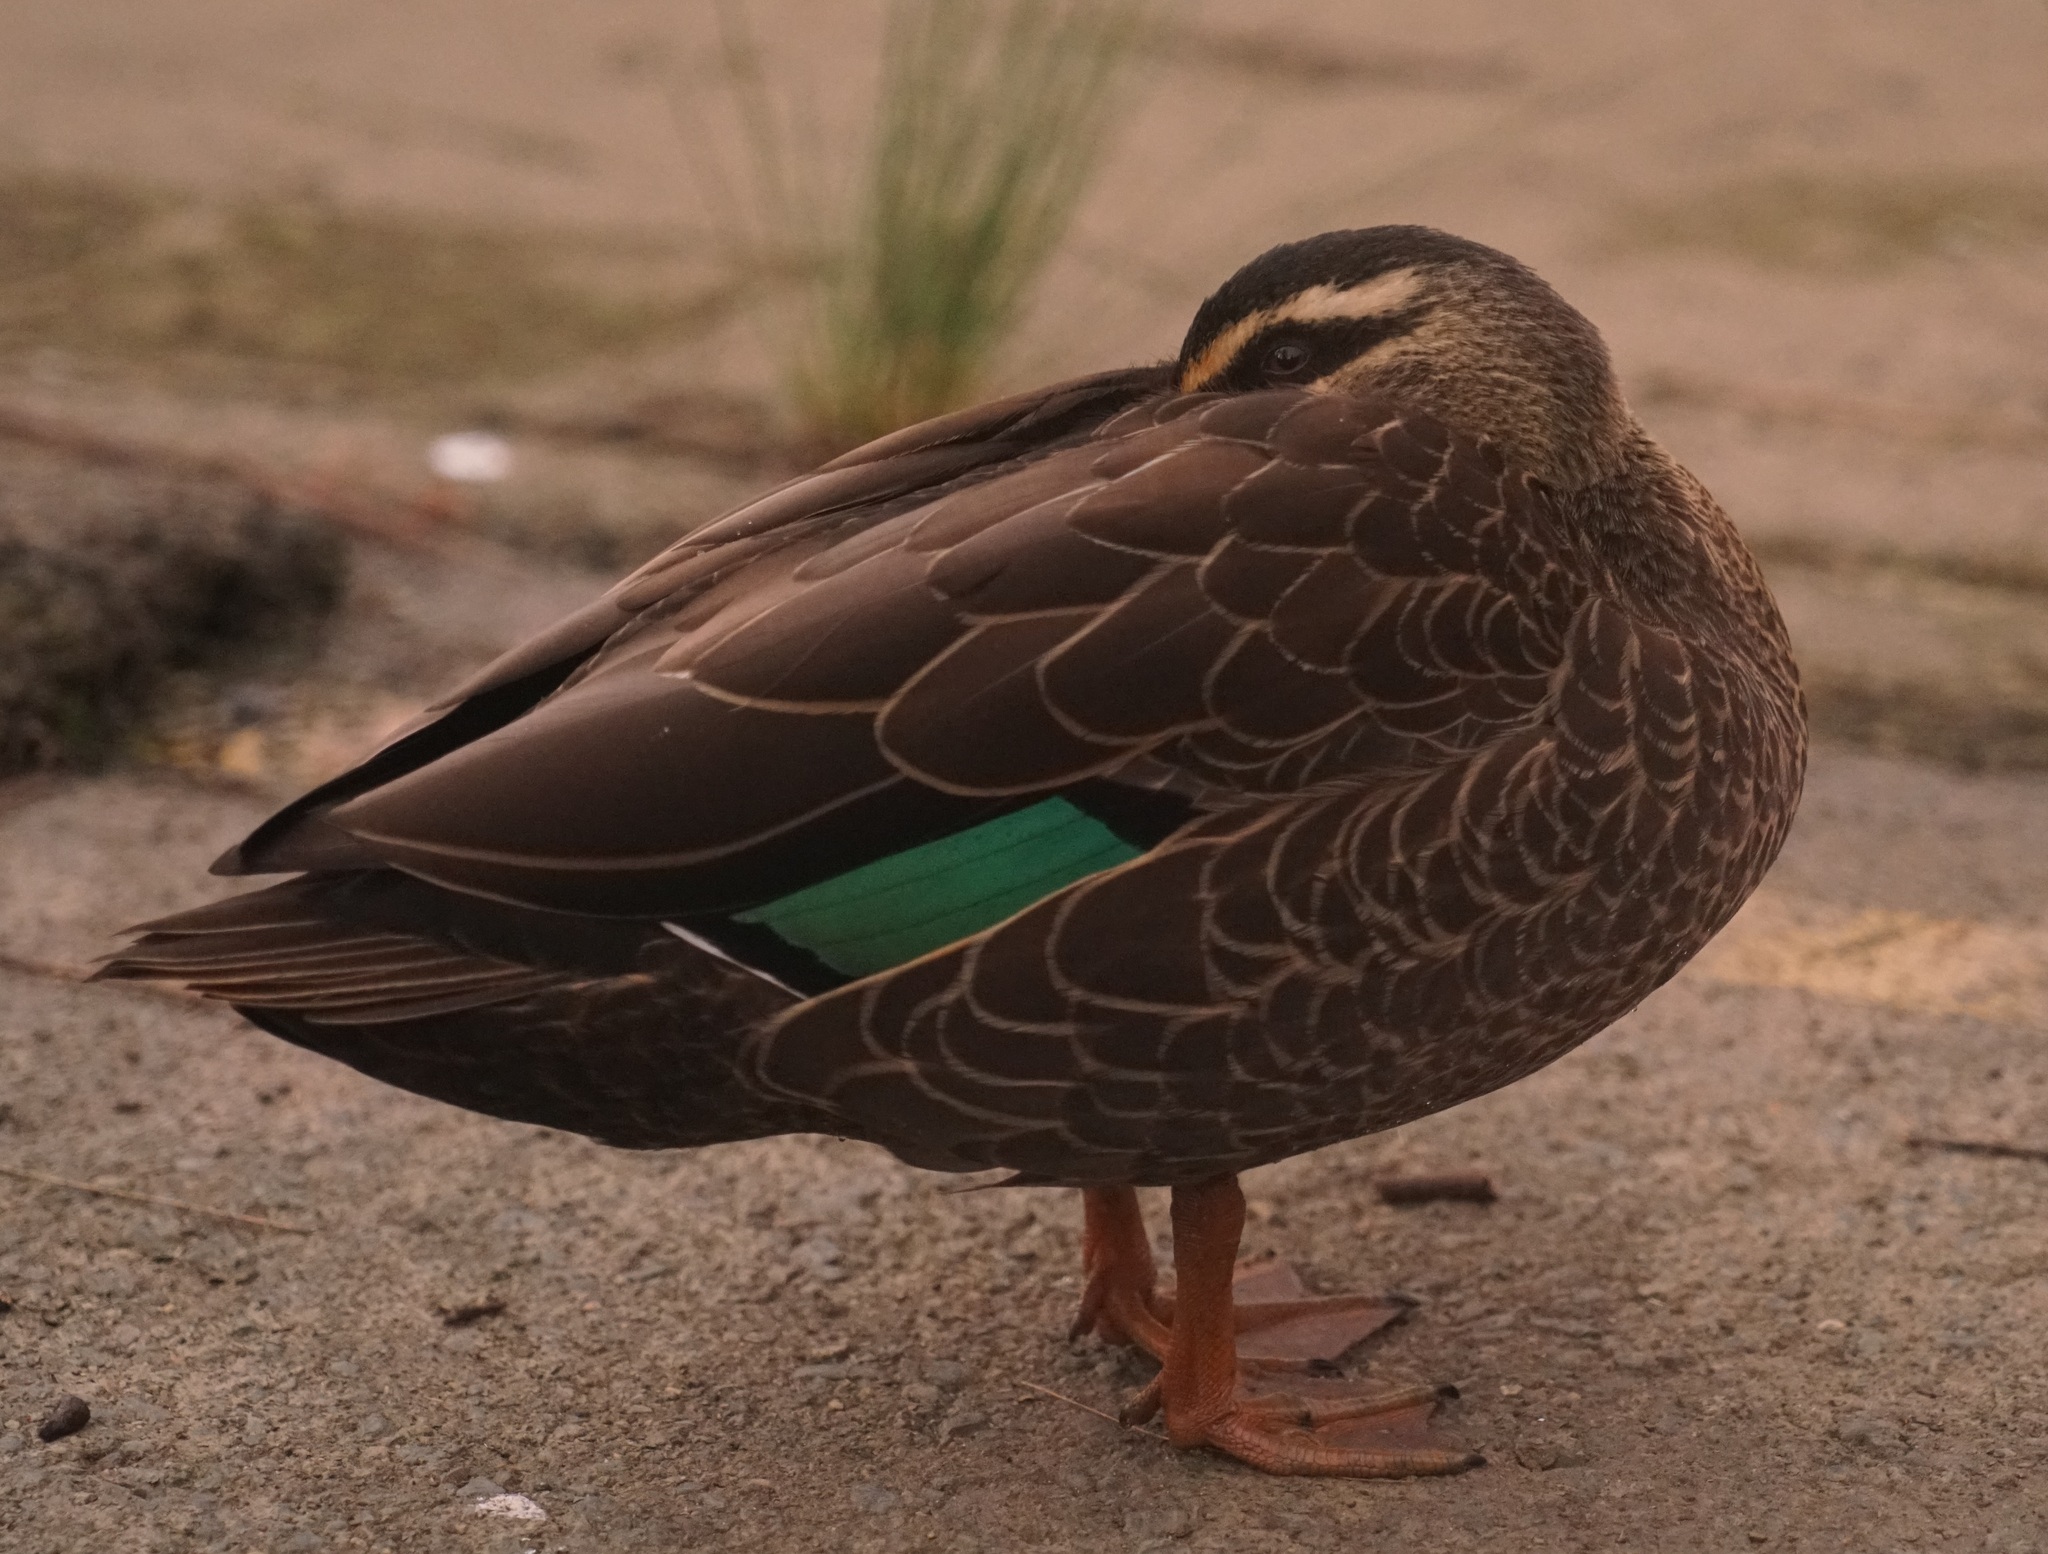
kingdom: Animalia
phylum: Chordata
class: Aves
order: Anseriformes
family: Anatidae
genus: Anas
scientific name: Anas
